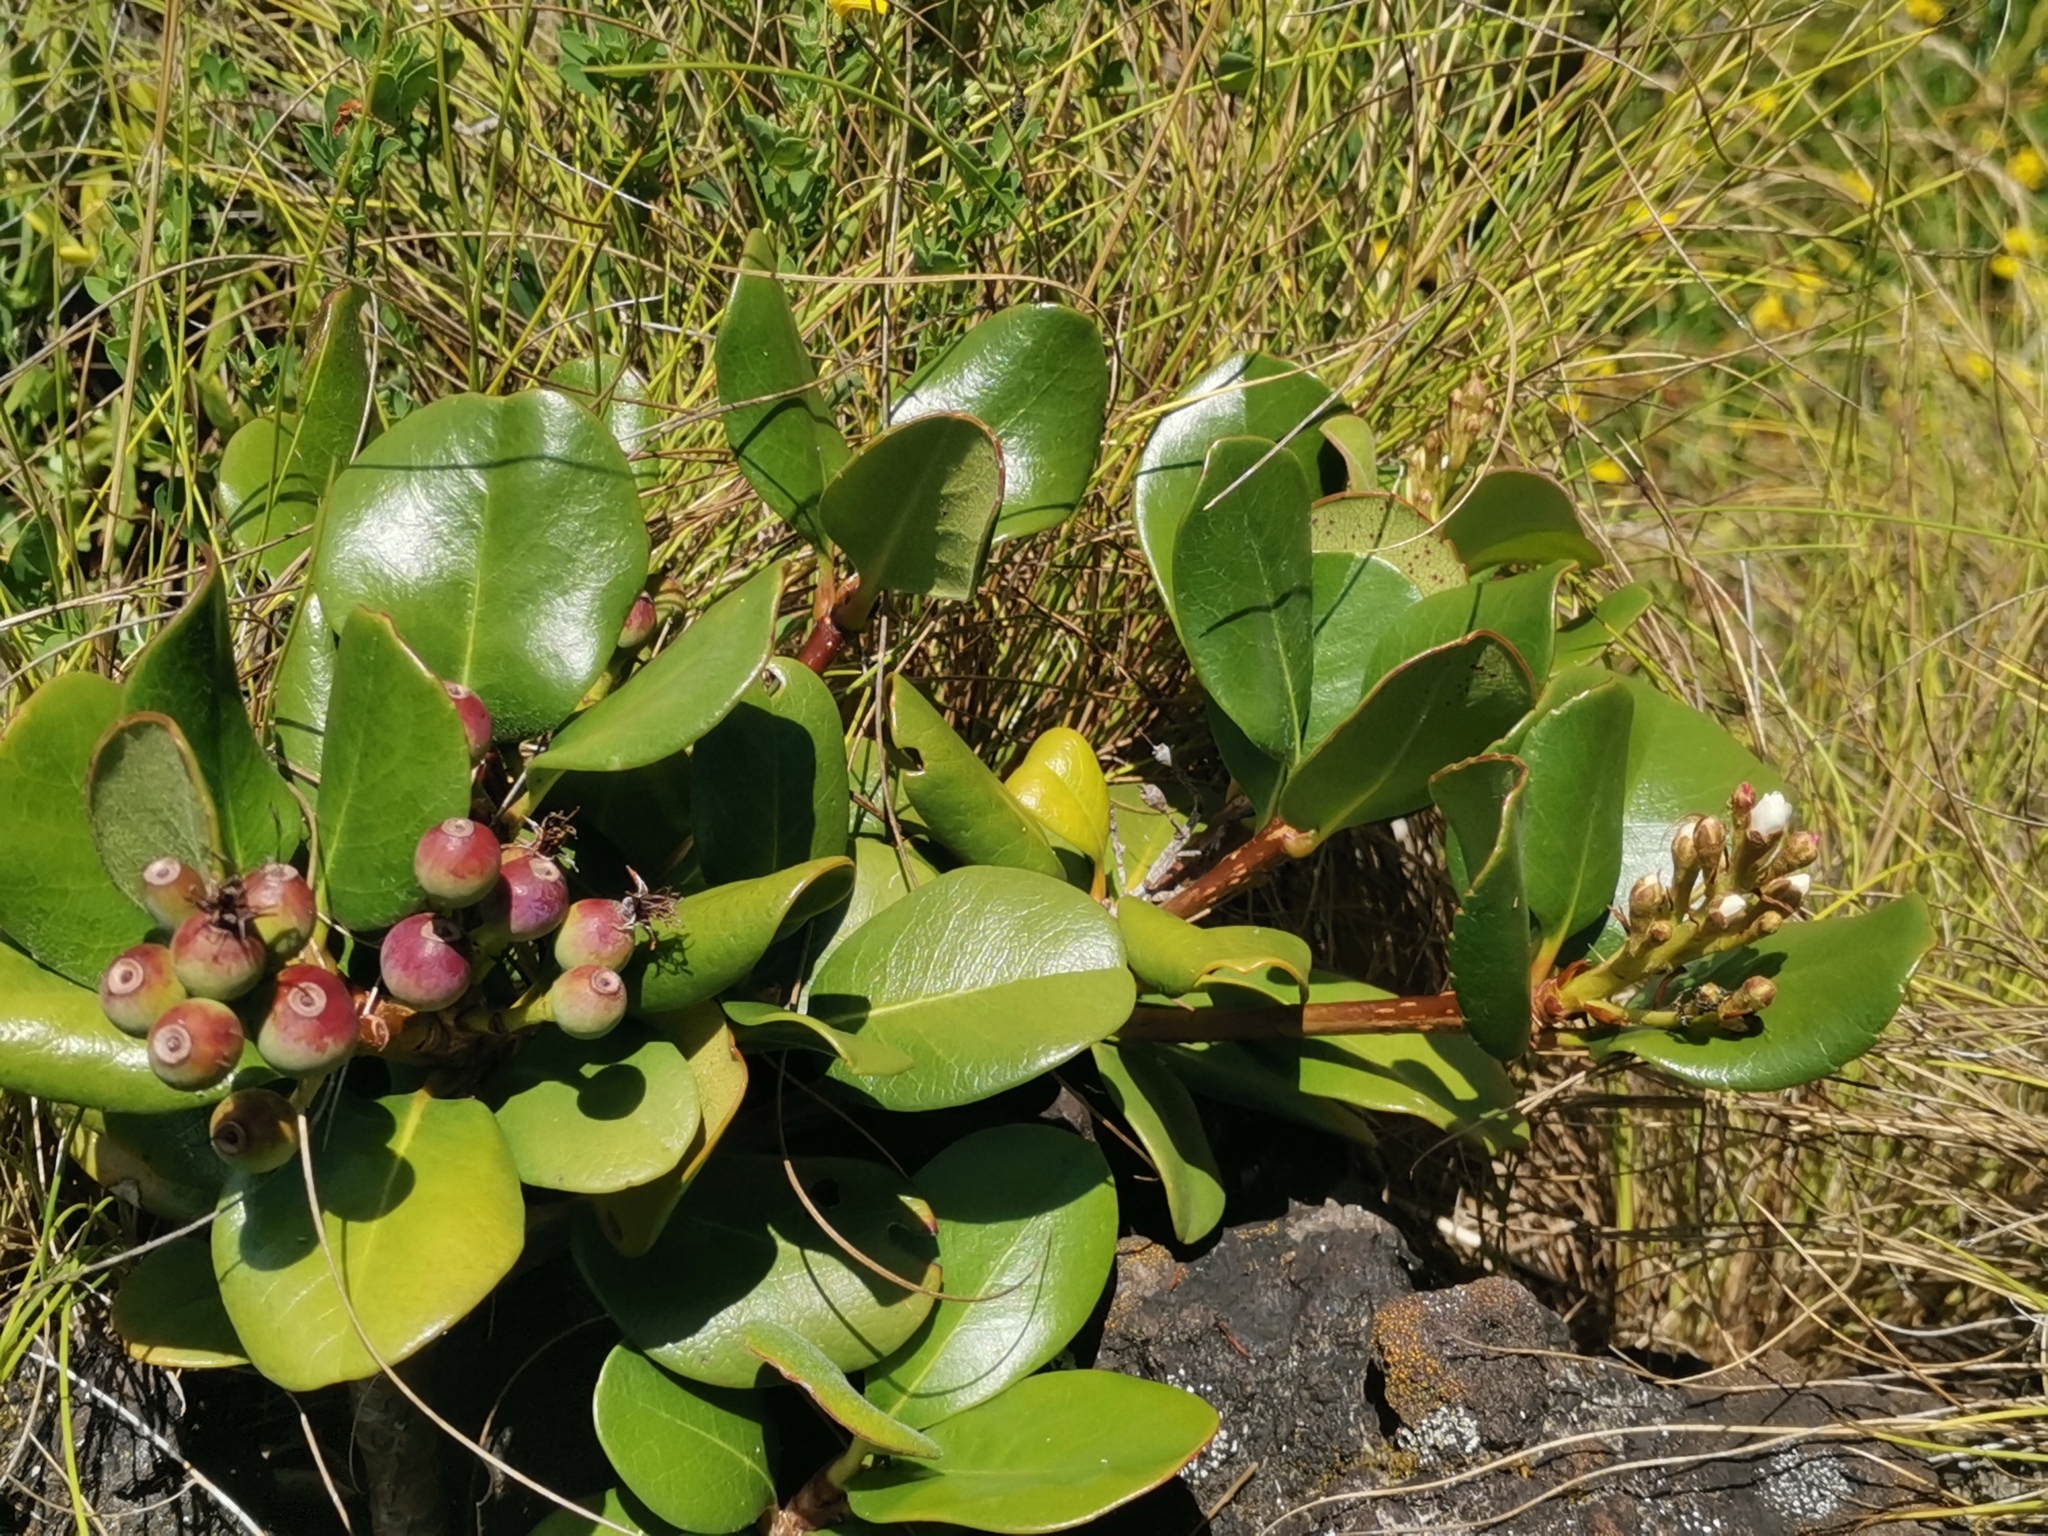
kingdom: Plantae
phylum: Tracheophyta
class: Magnoliopsida
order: Rosales
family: Rosaceae
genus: Rhaphiolepis
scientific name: Rhaphiolepis umbellata
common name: Yedda-hawthorn
